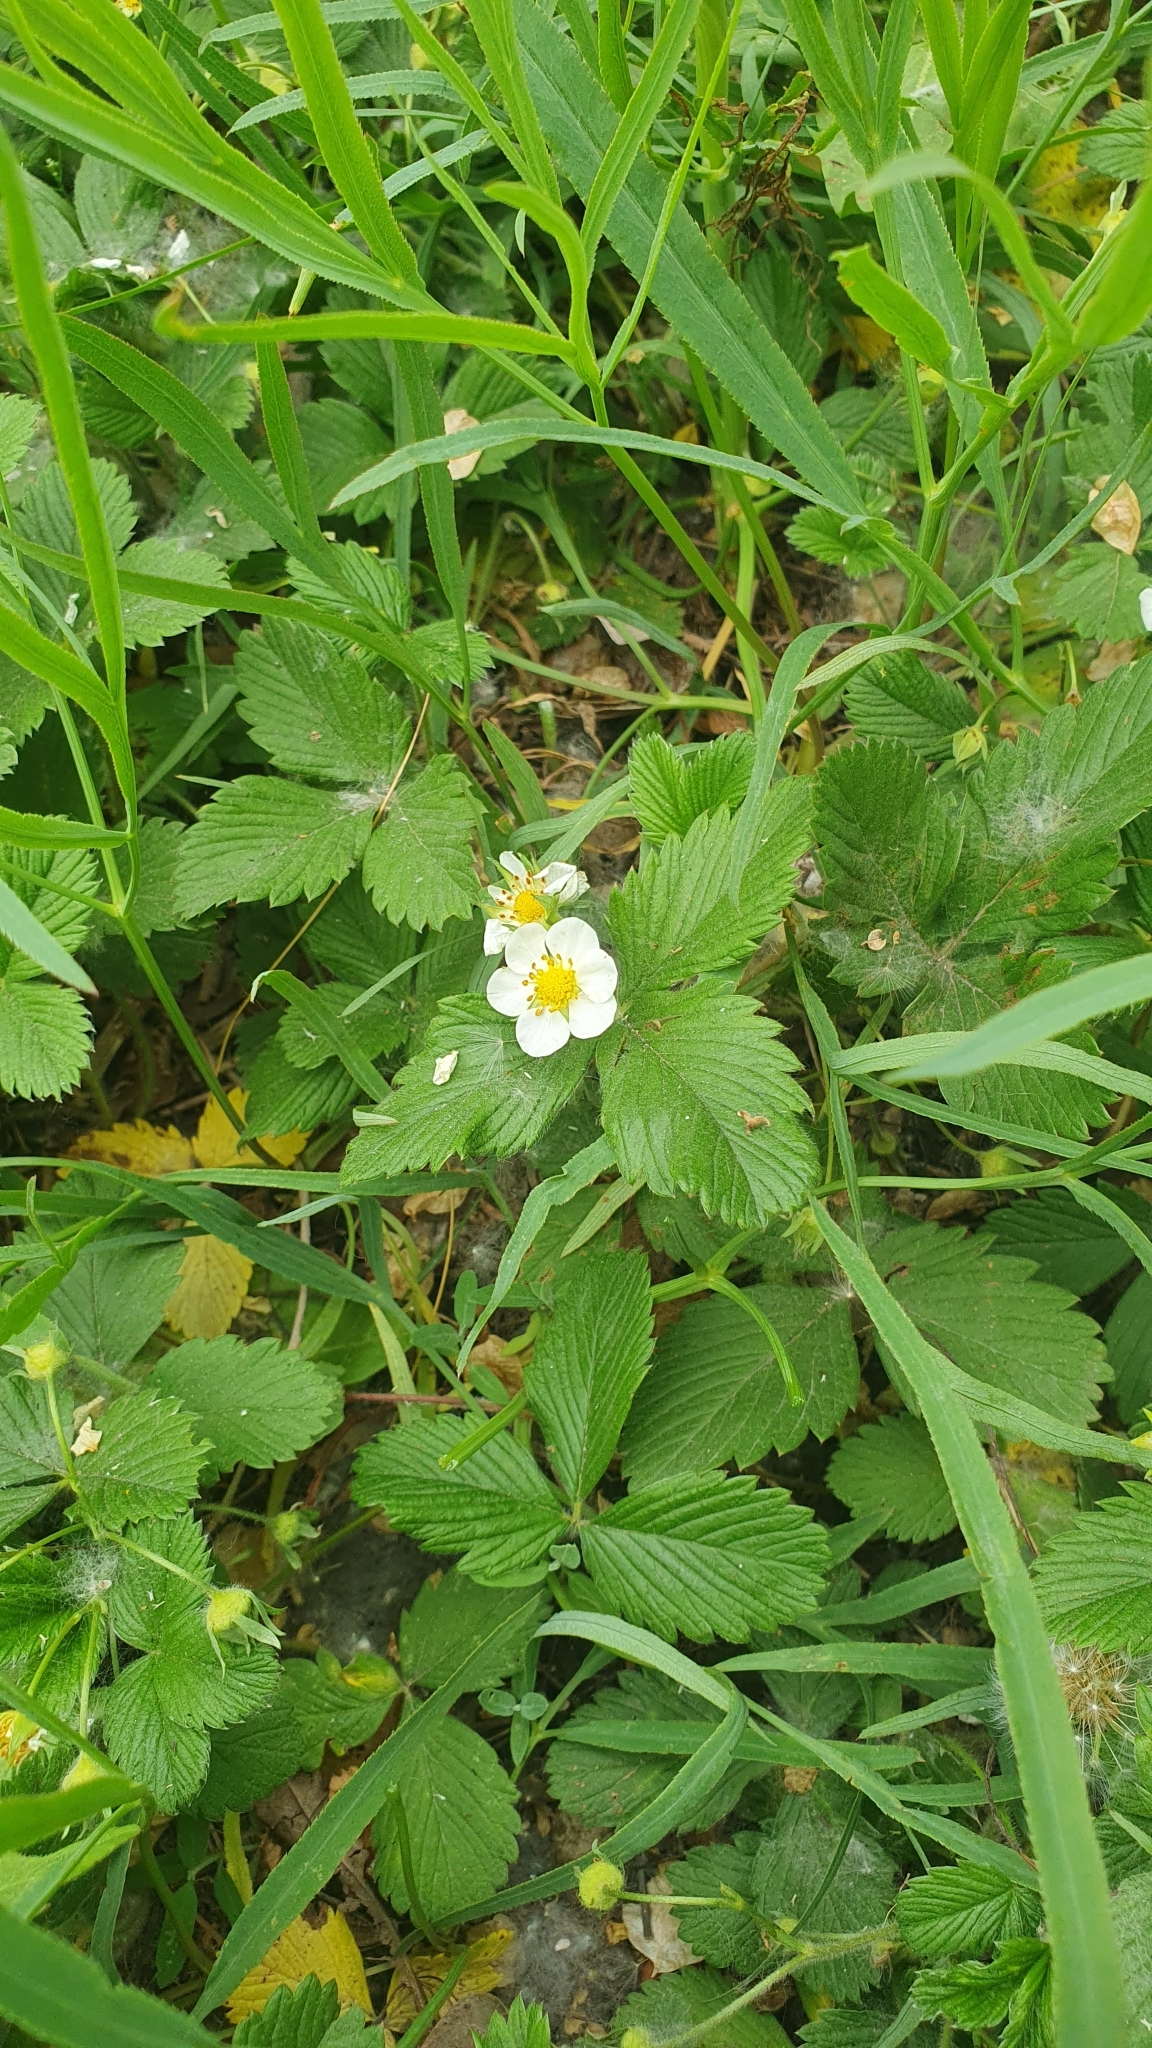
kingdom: Plantae
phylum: Tracheophyta
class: Magnoliopsida
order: Rosales
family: Rosaceae
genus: Fragaria
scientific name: Fragaria viridis
